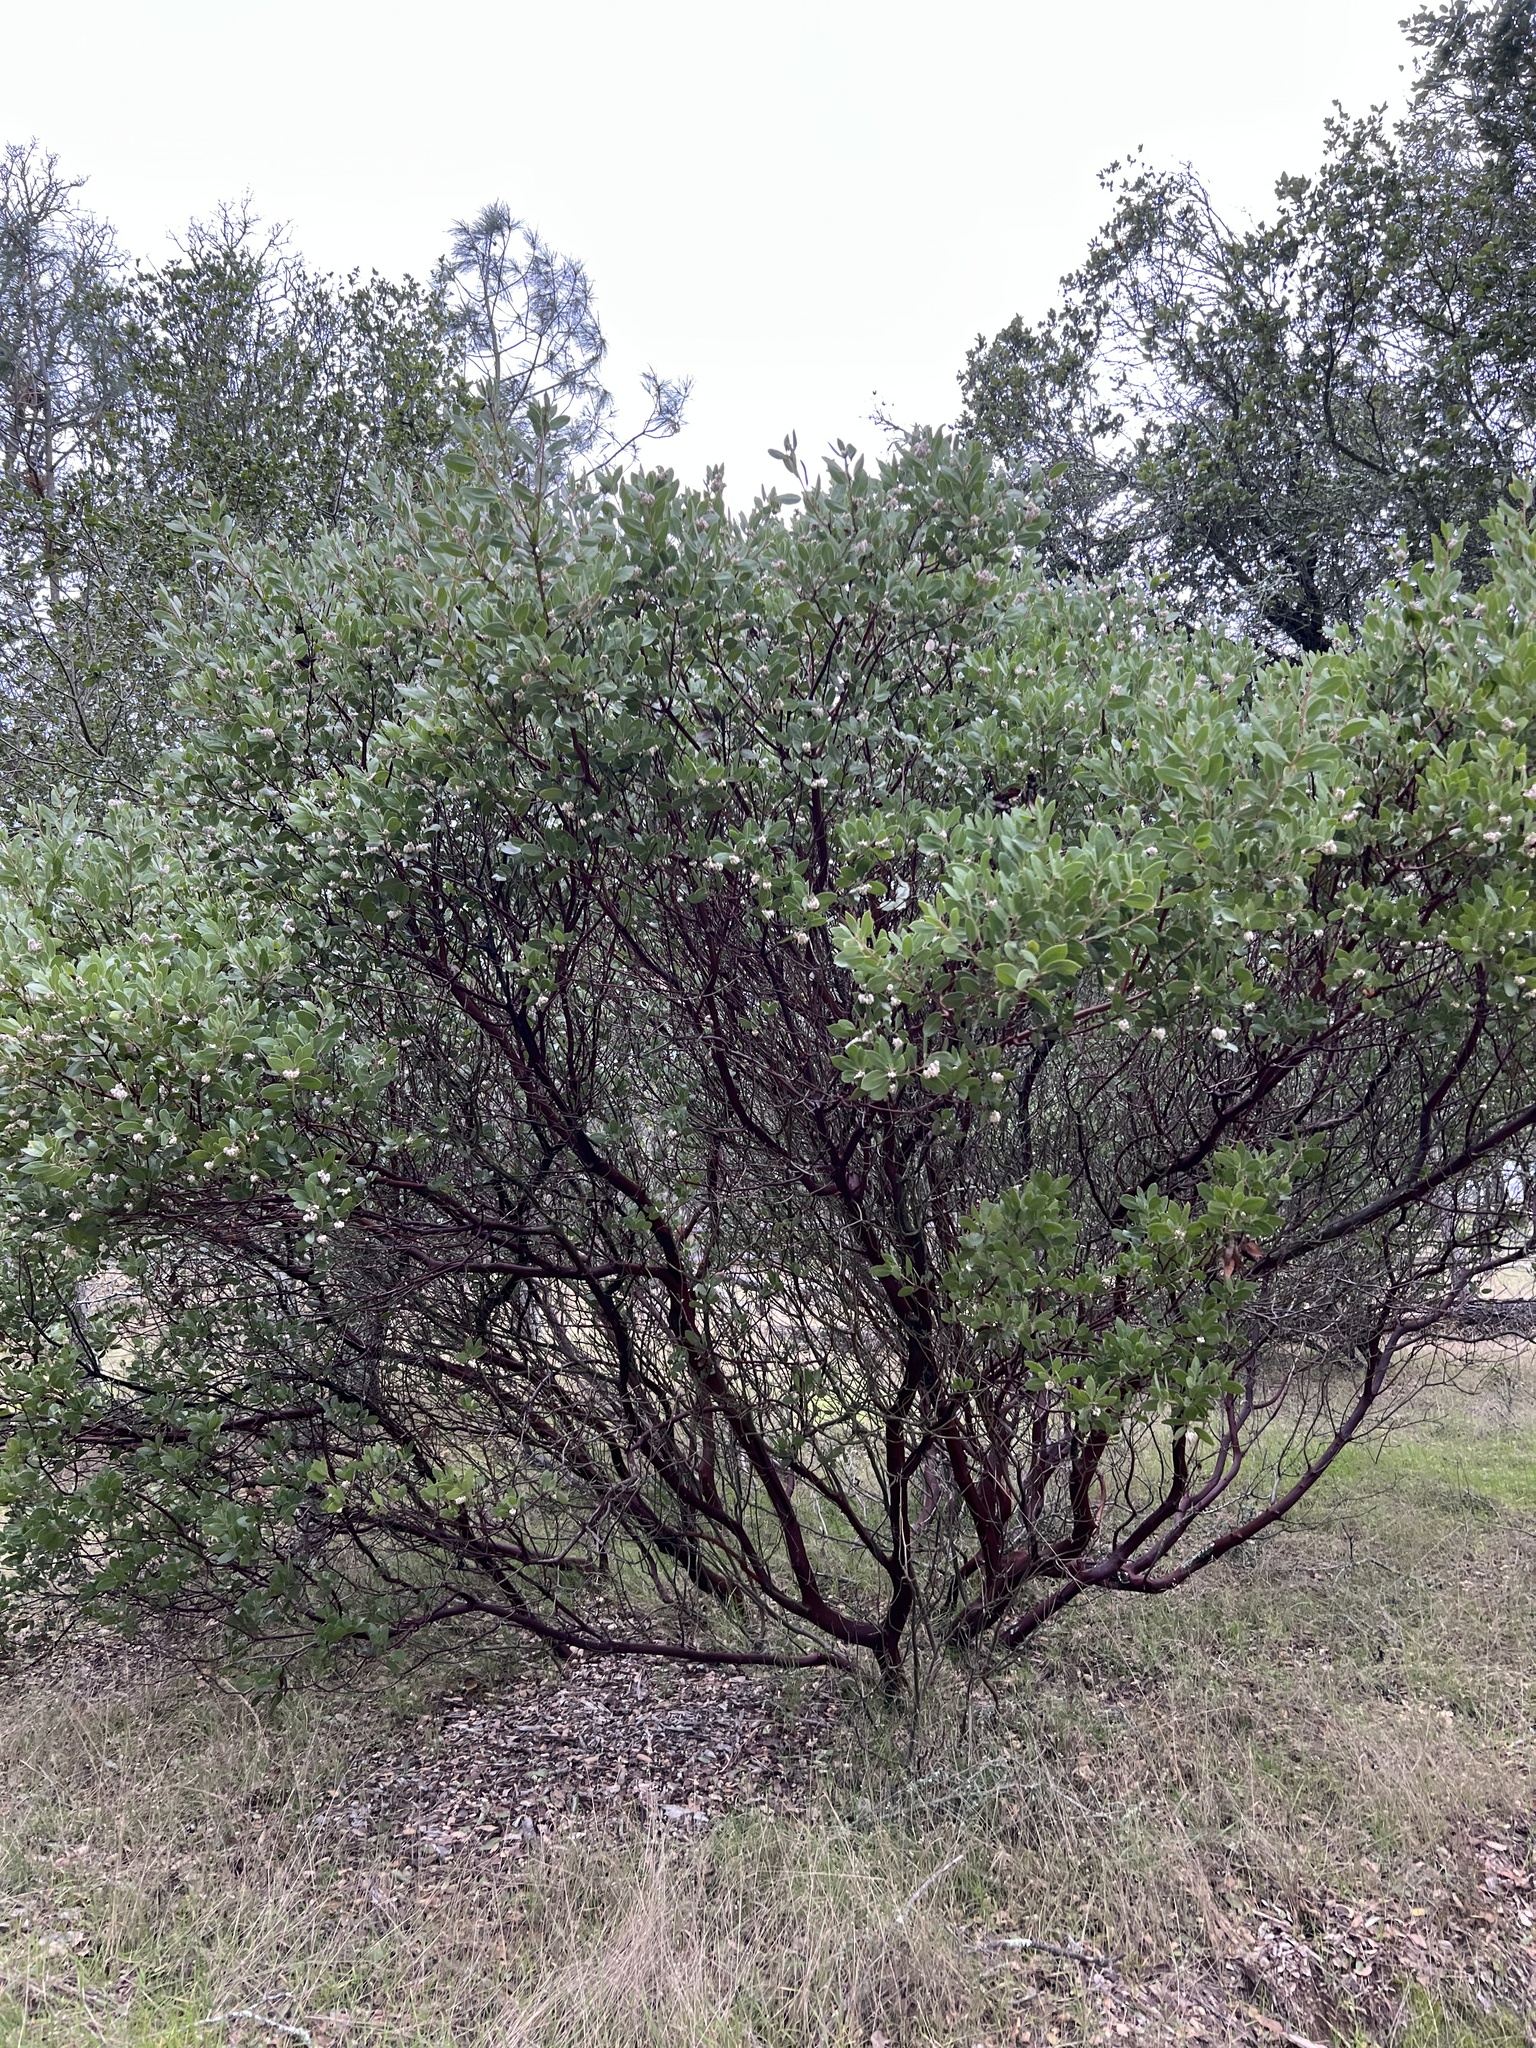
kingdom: Plantae
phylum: Tracheophyta
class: Magnoliopsida
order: Ericales
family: Ericaceae
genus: Arctostaphylos
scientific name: Arctostaphylos manzanita
